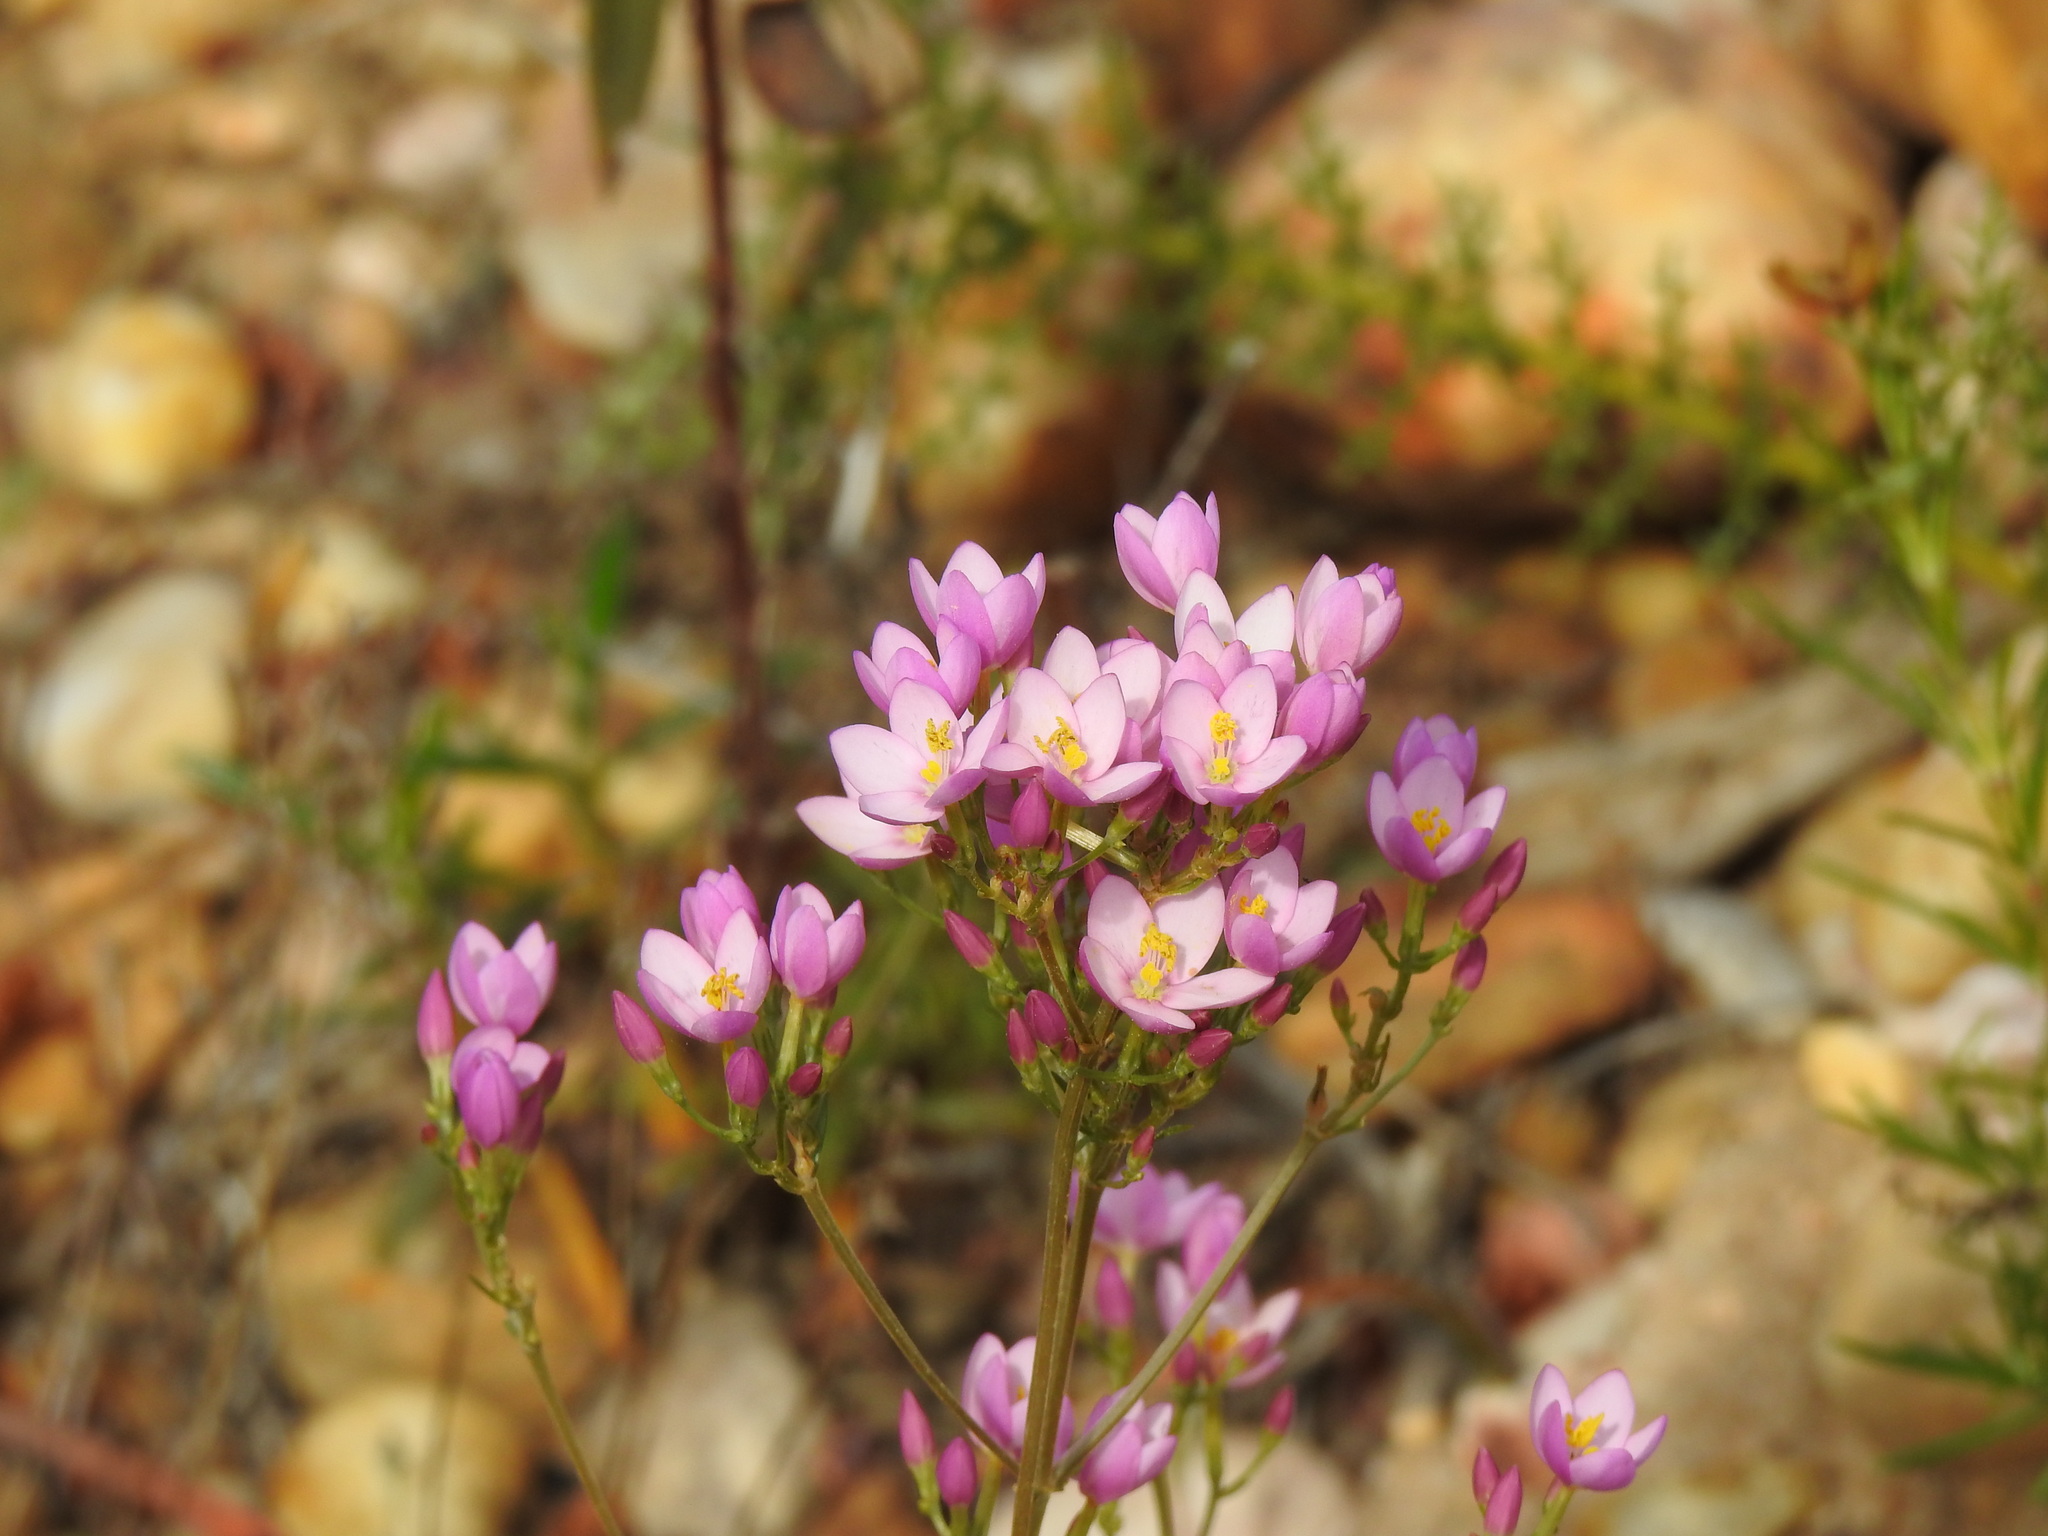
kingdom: Plantae
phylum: Tracheophyta
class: Magnoliopsida
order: Gentianales
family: Gentianaceae
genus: Centaurium
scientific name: Centaurium grandiflorum
